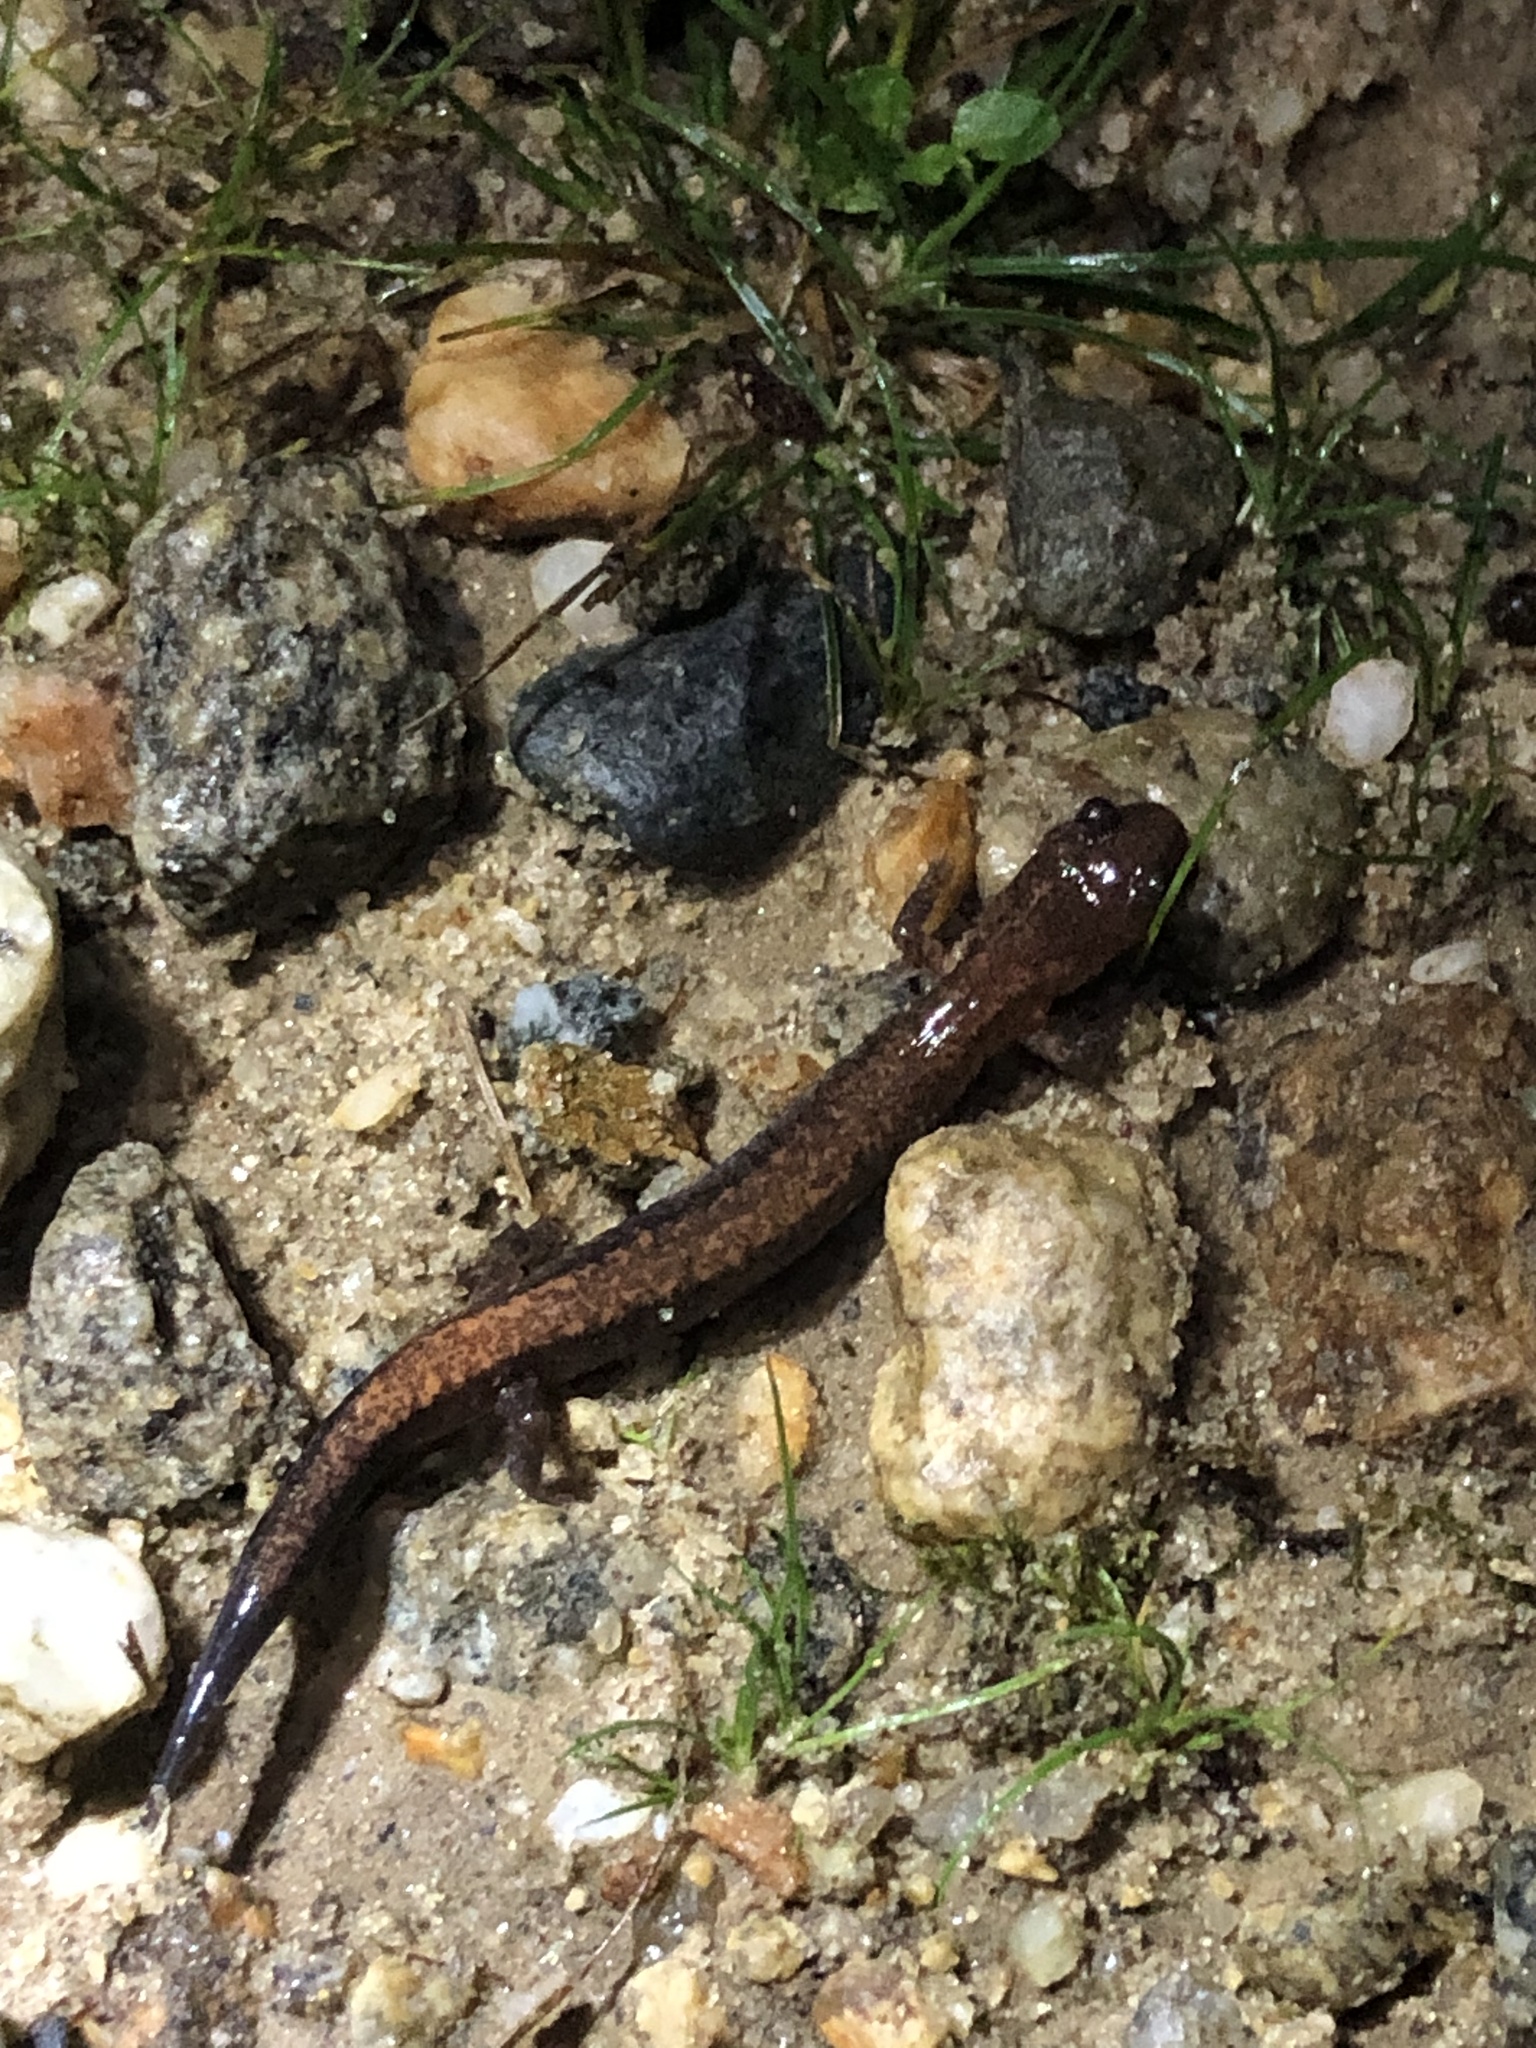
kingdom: Animalia
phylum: Chordata
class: Amphibia
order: Caudata
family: Plethodontidae
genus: Plethodon
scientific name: Plethodon cinereus
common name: Redback salamander
